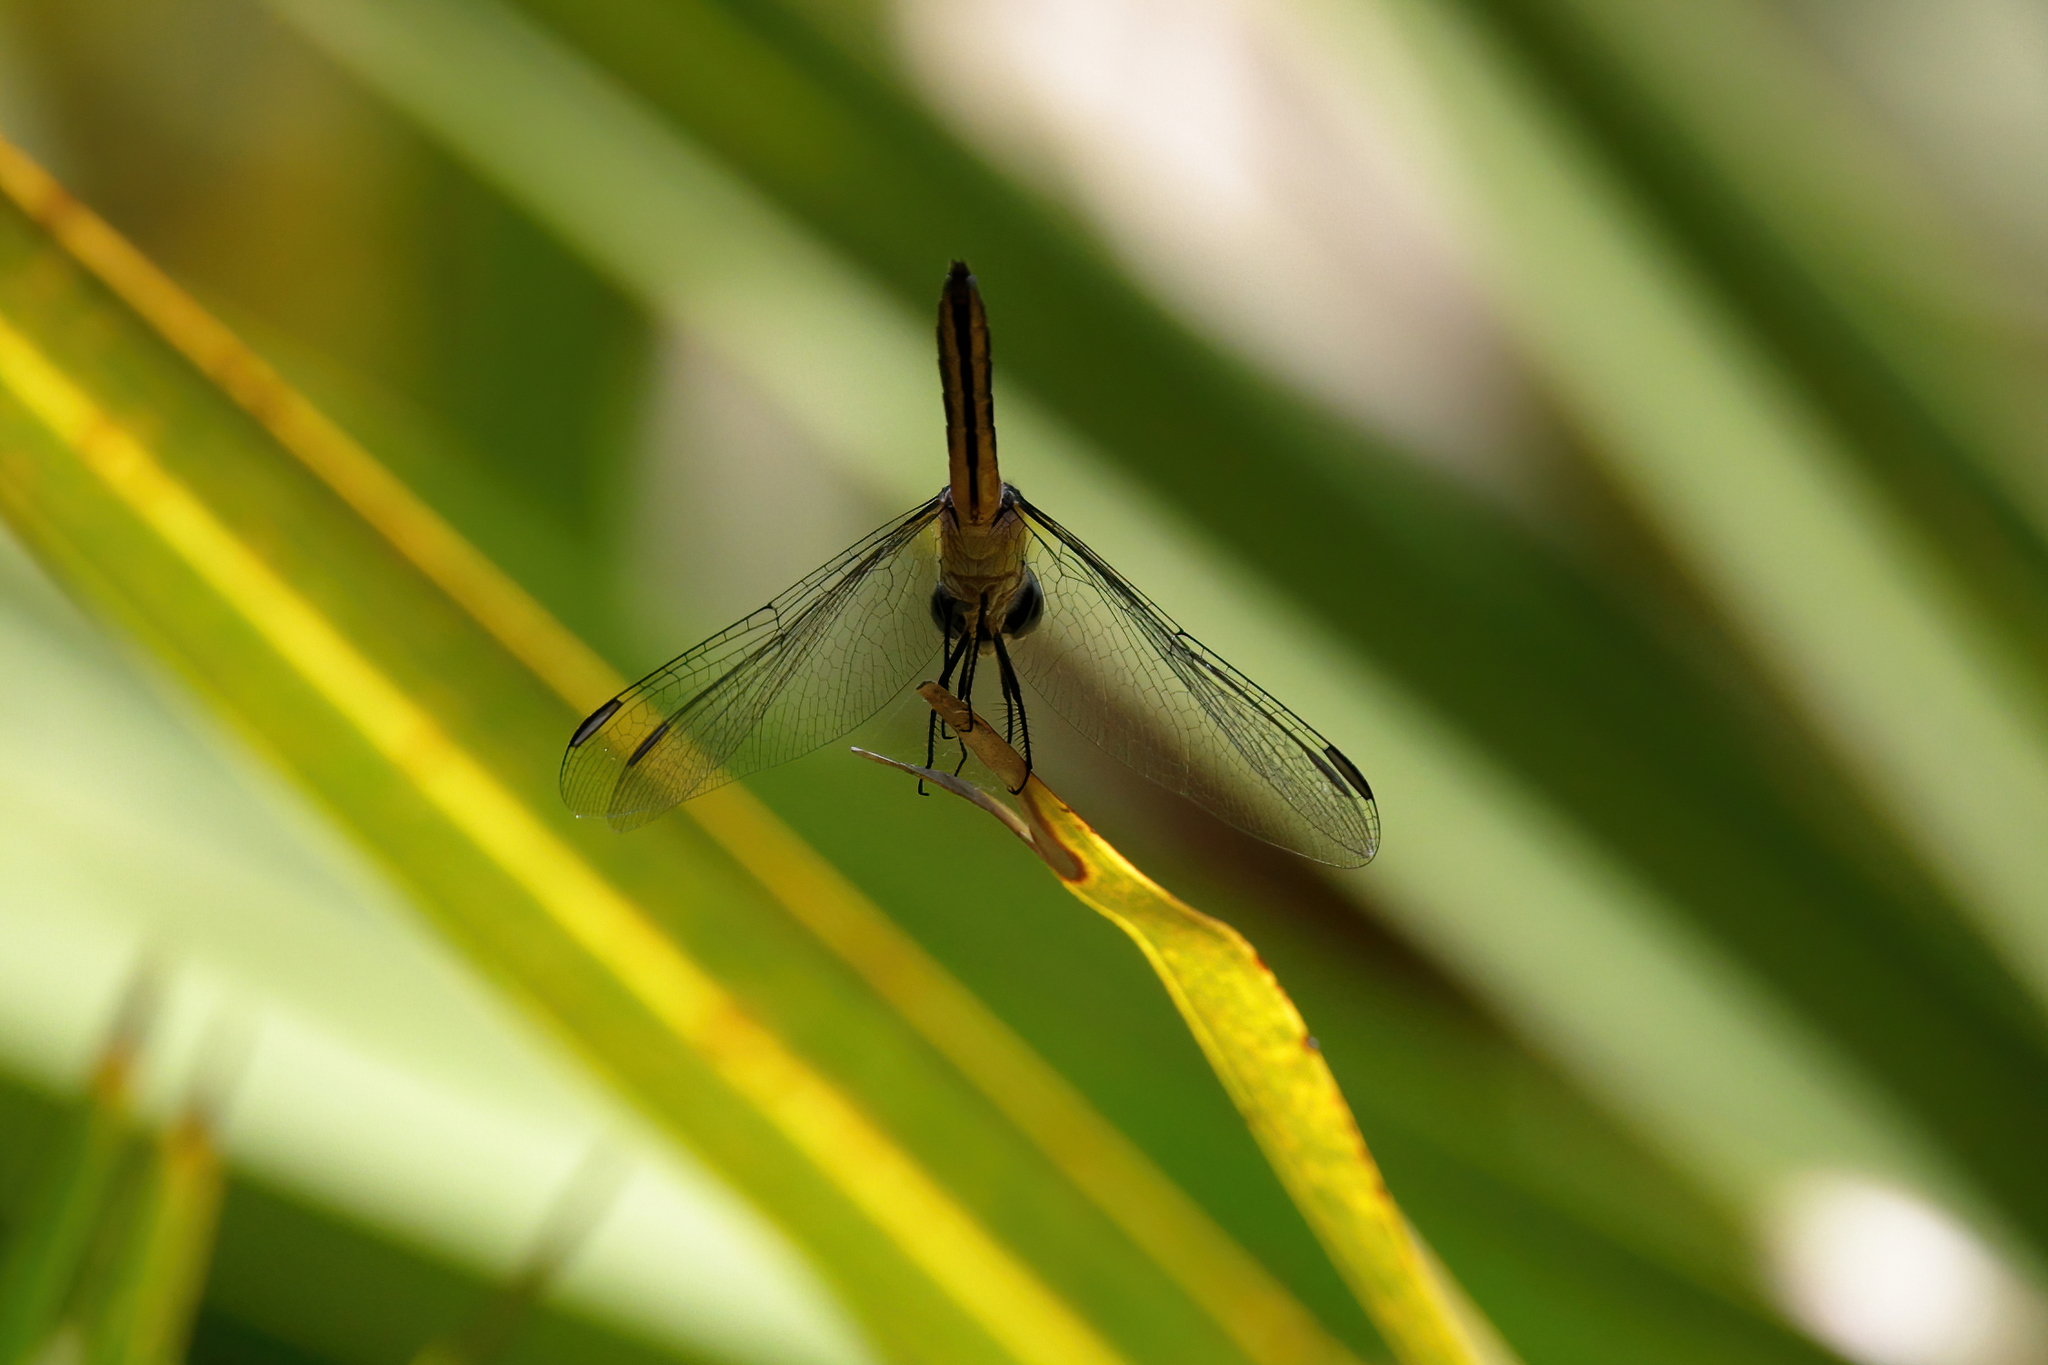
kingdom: Animalia
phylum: Arthropoda
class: Insecta
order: Odonata
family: Libellulidae
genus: Erythrodiplax
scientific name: Erythrodiplax minuscula
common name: Little blue dragonlet
